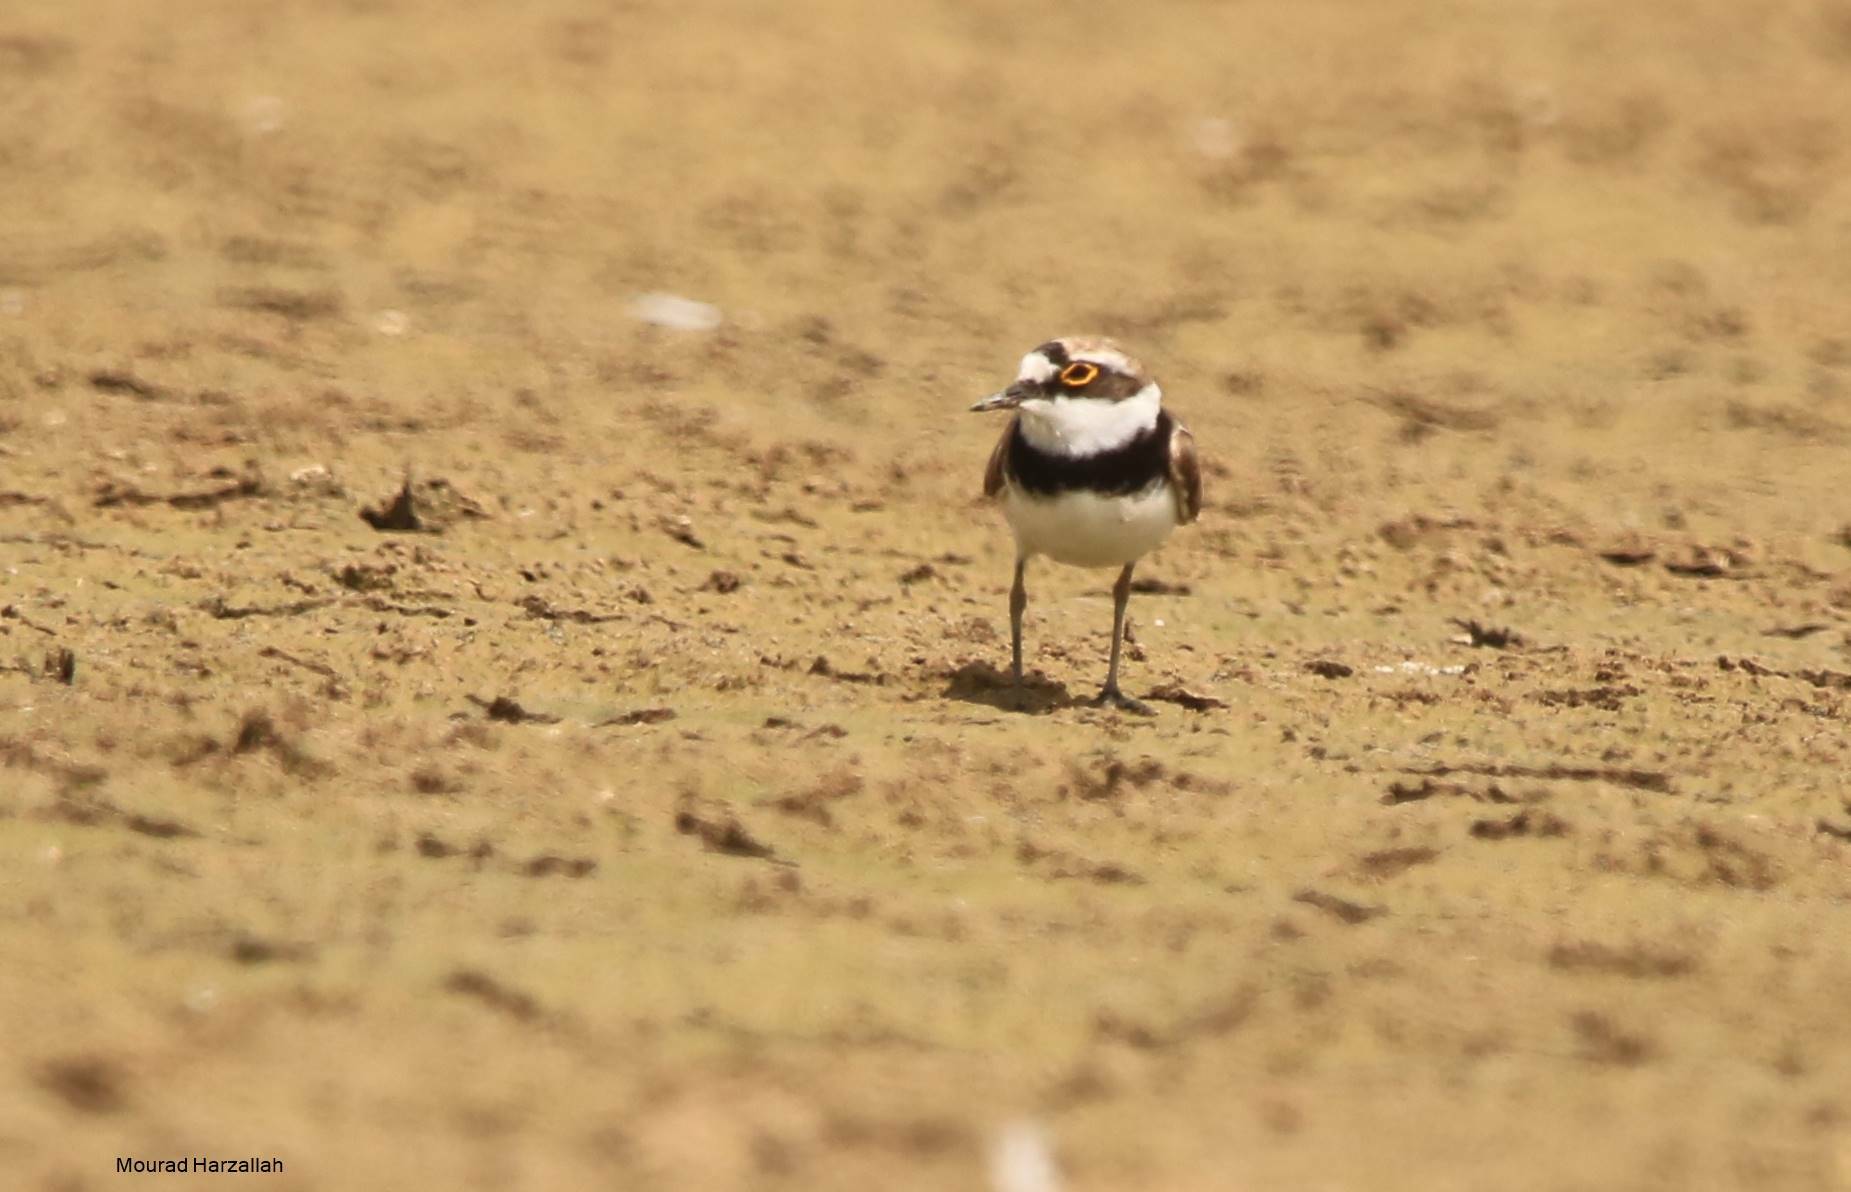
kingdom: Animalia
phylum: Chordata
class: Aves
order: Charadriiformes
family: Charadriidae
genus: Charadrius
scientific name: Charadrius dubius
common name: Little ringed plover
